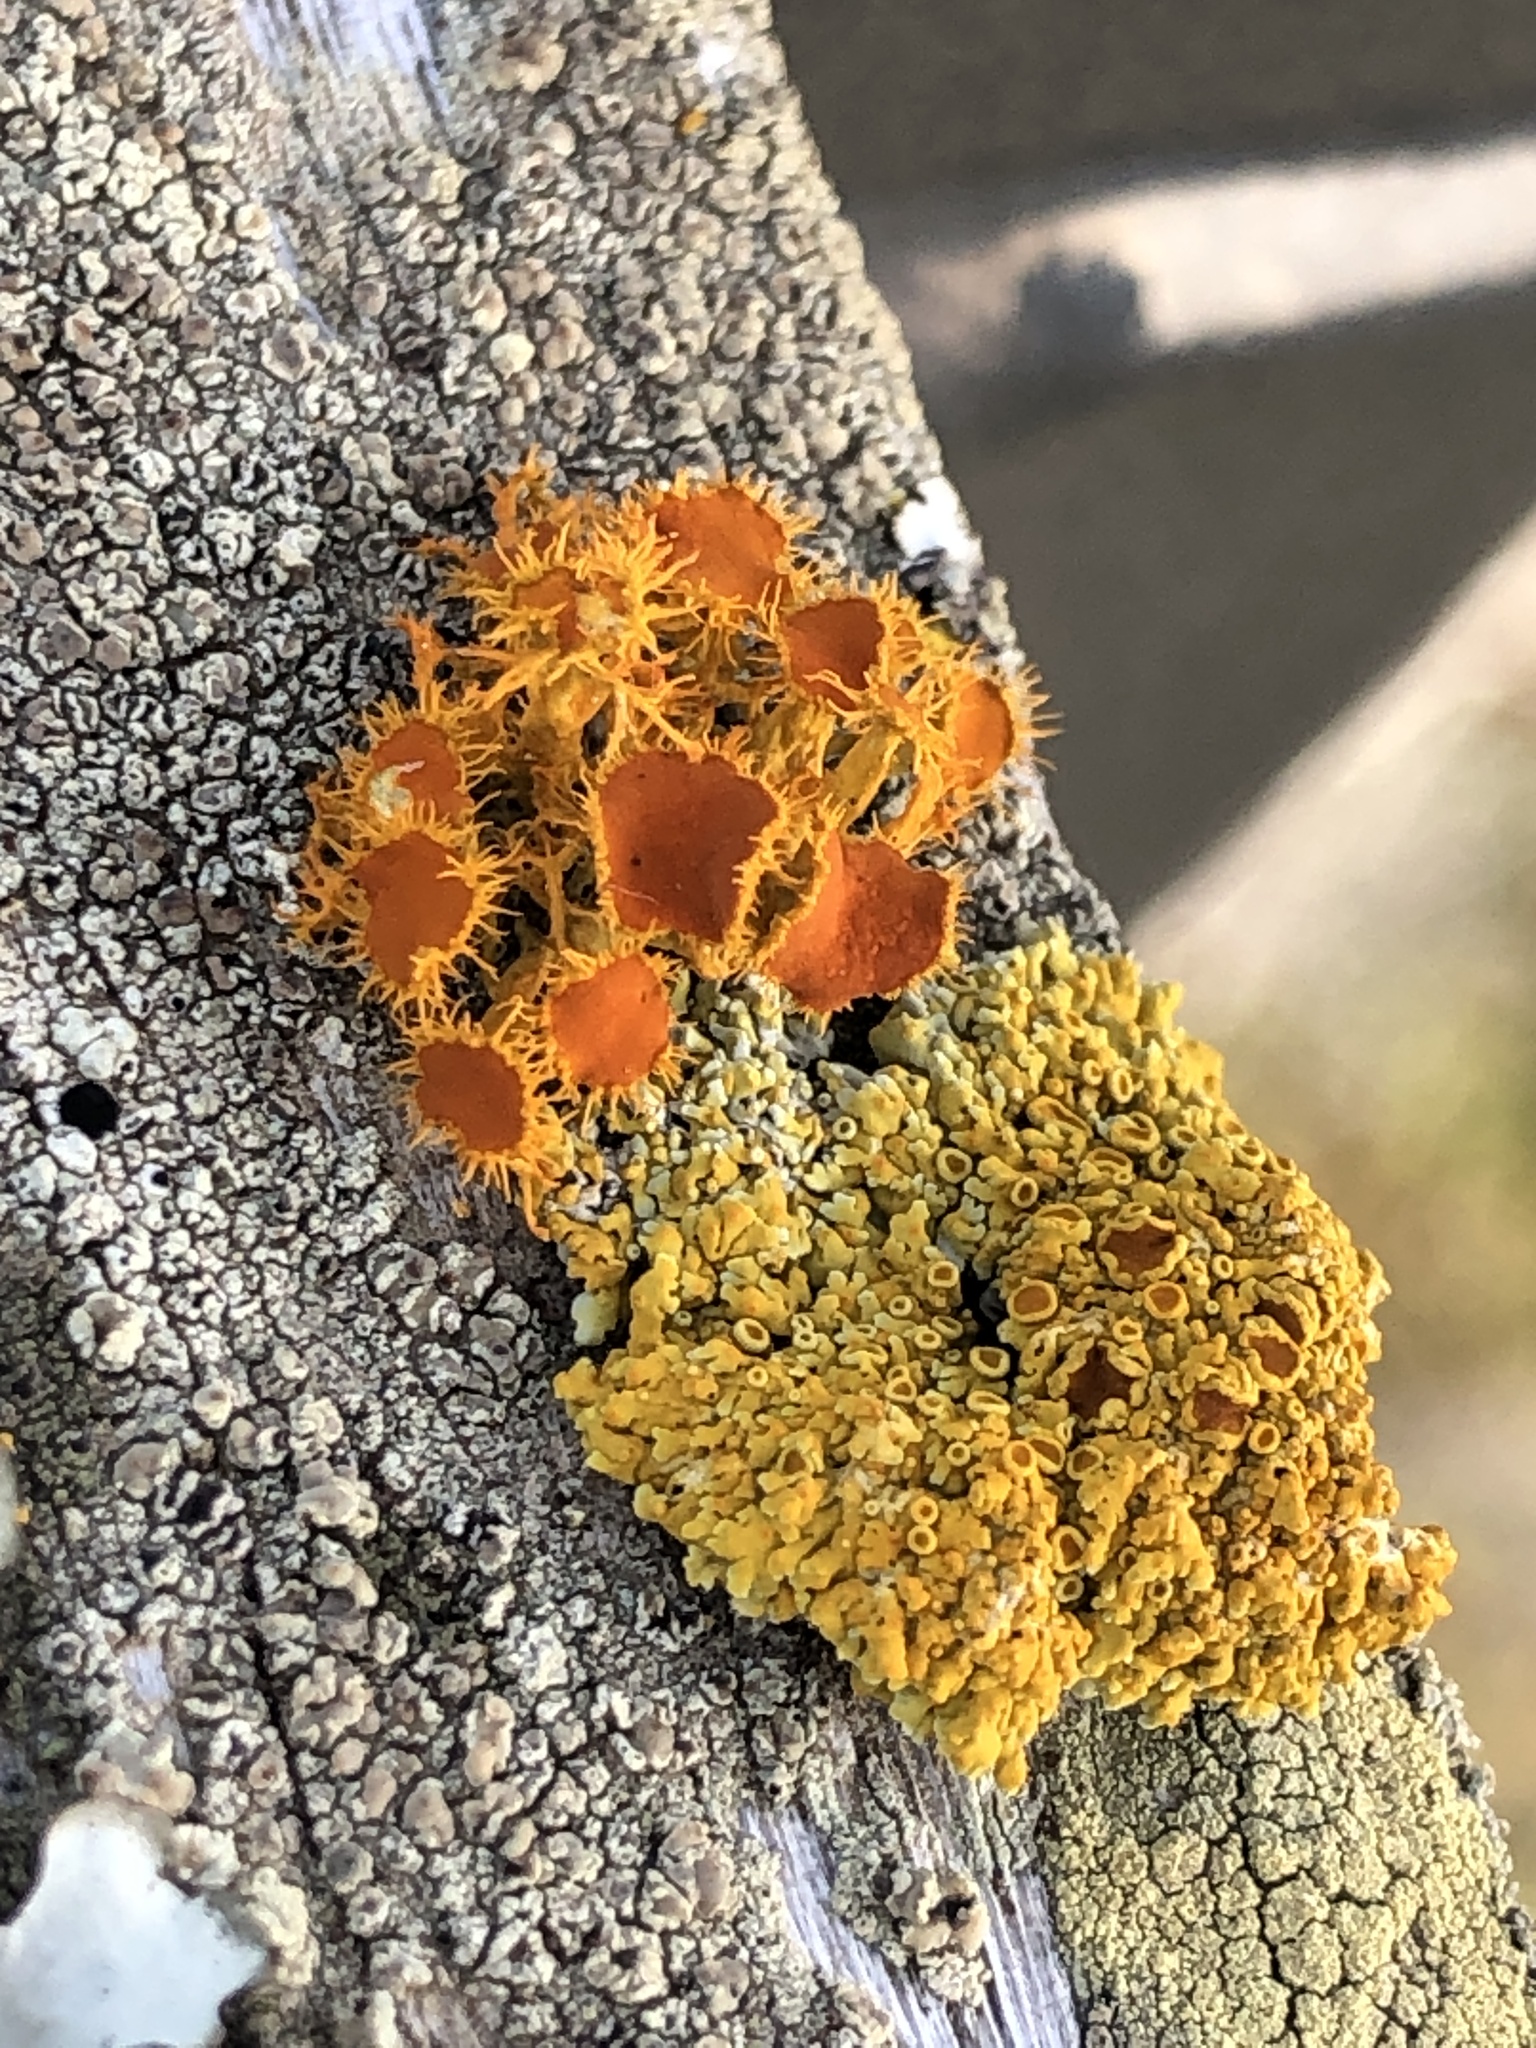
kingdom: Fungi
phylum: Ascomycota
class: Lecanoromycetes
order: Teloschistales
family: Teloschistaceae
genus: Niorma
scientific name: Niorma chrysophthalma
